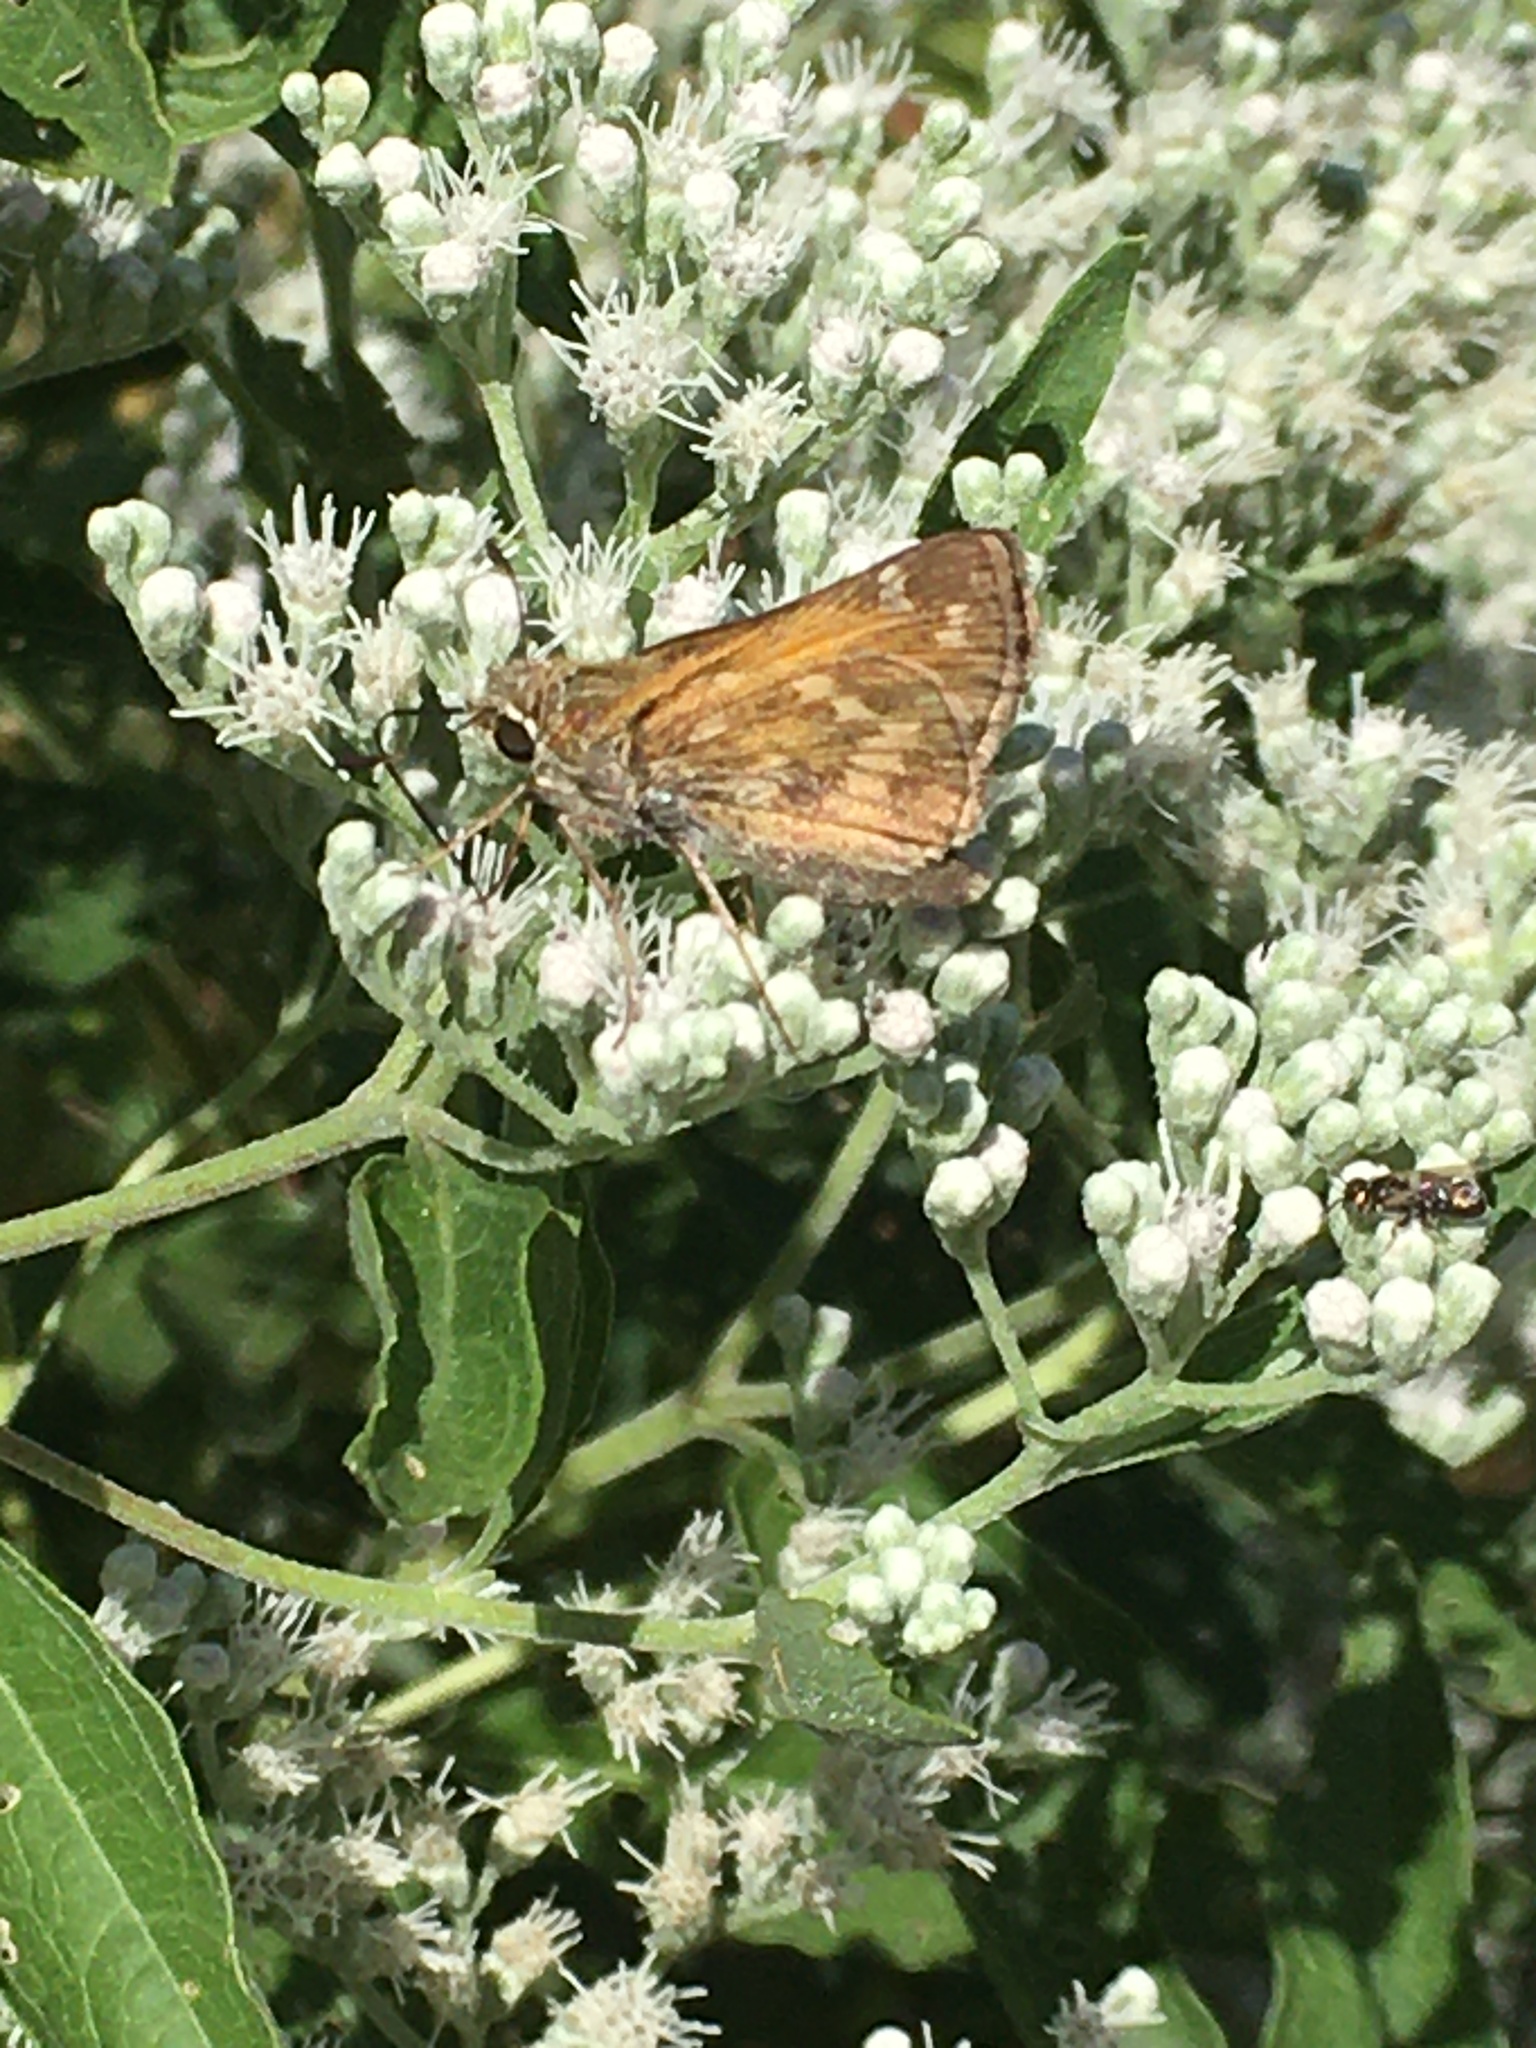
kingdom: Animalia
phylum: Arthropoda
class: Insecta
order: Lepidoptera
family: Hesperiidae
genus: Atalopedes
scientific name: Atalopedes
